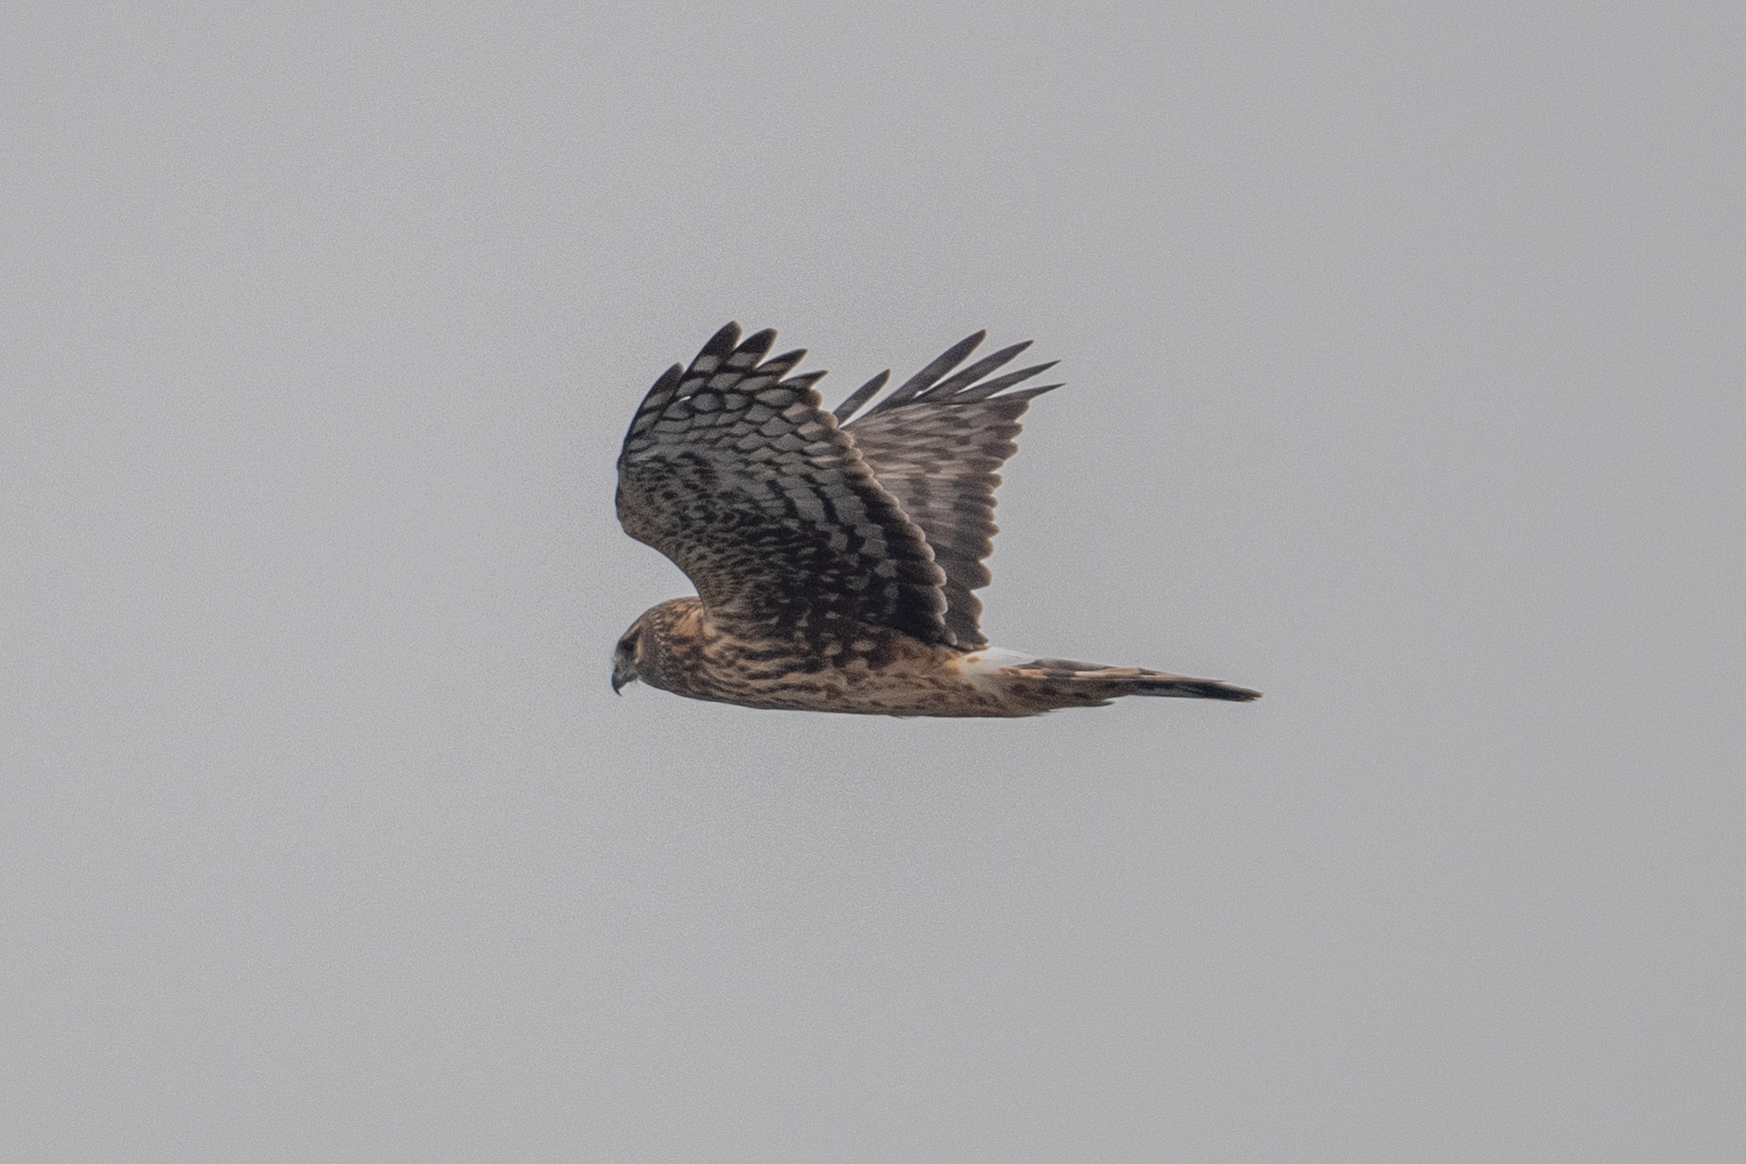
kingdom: Animalia
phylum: Chordata
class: Aves
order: Accipitriformes
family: Accipitridae
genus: Circus
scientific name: Circus cyaneus
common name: Hen harrier
